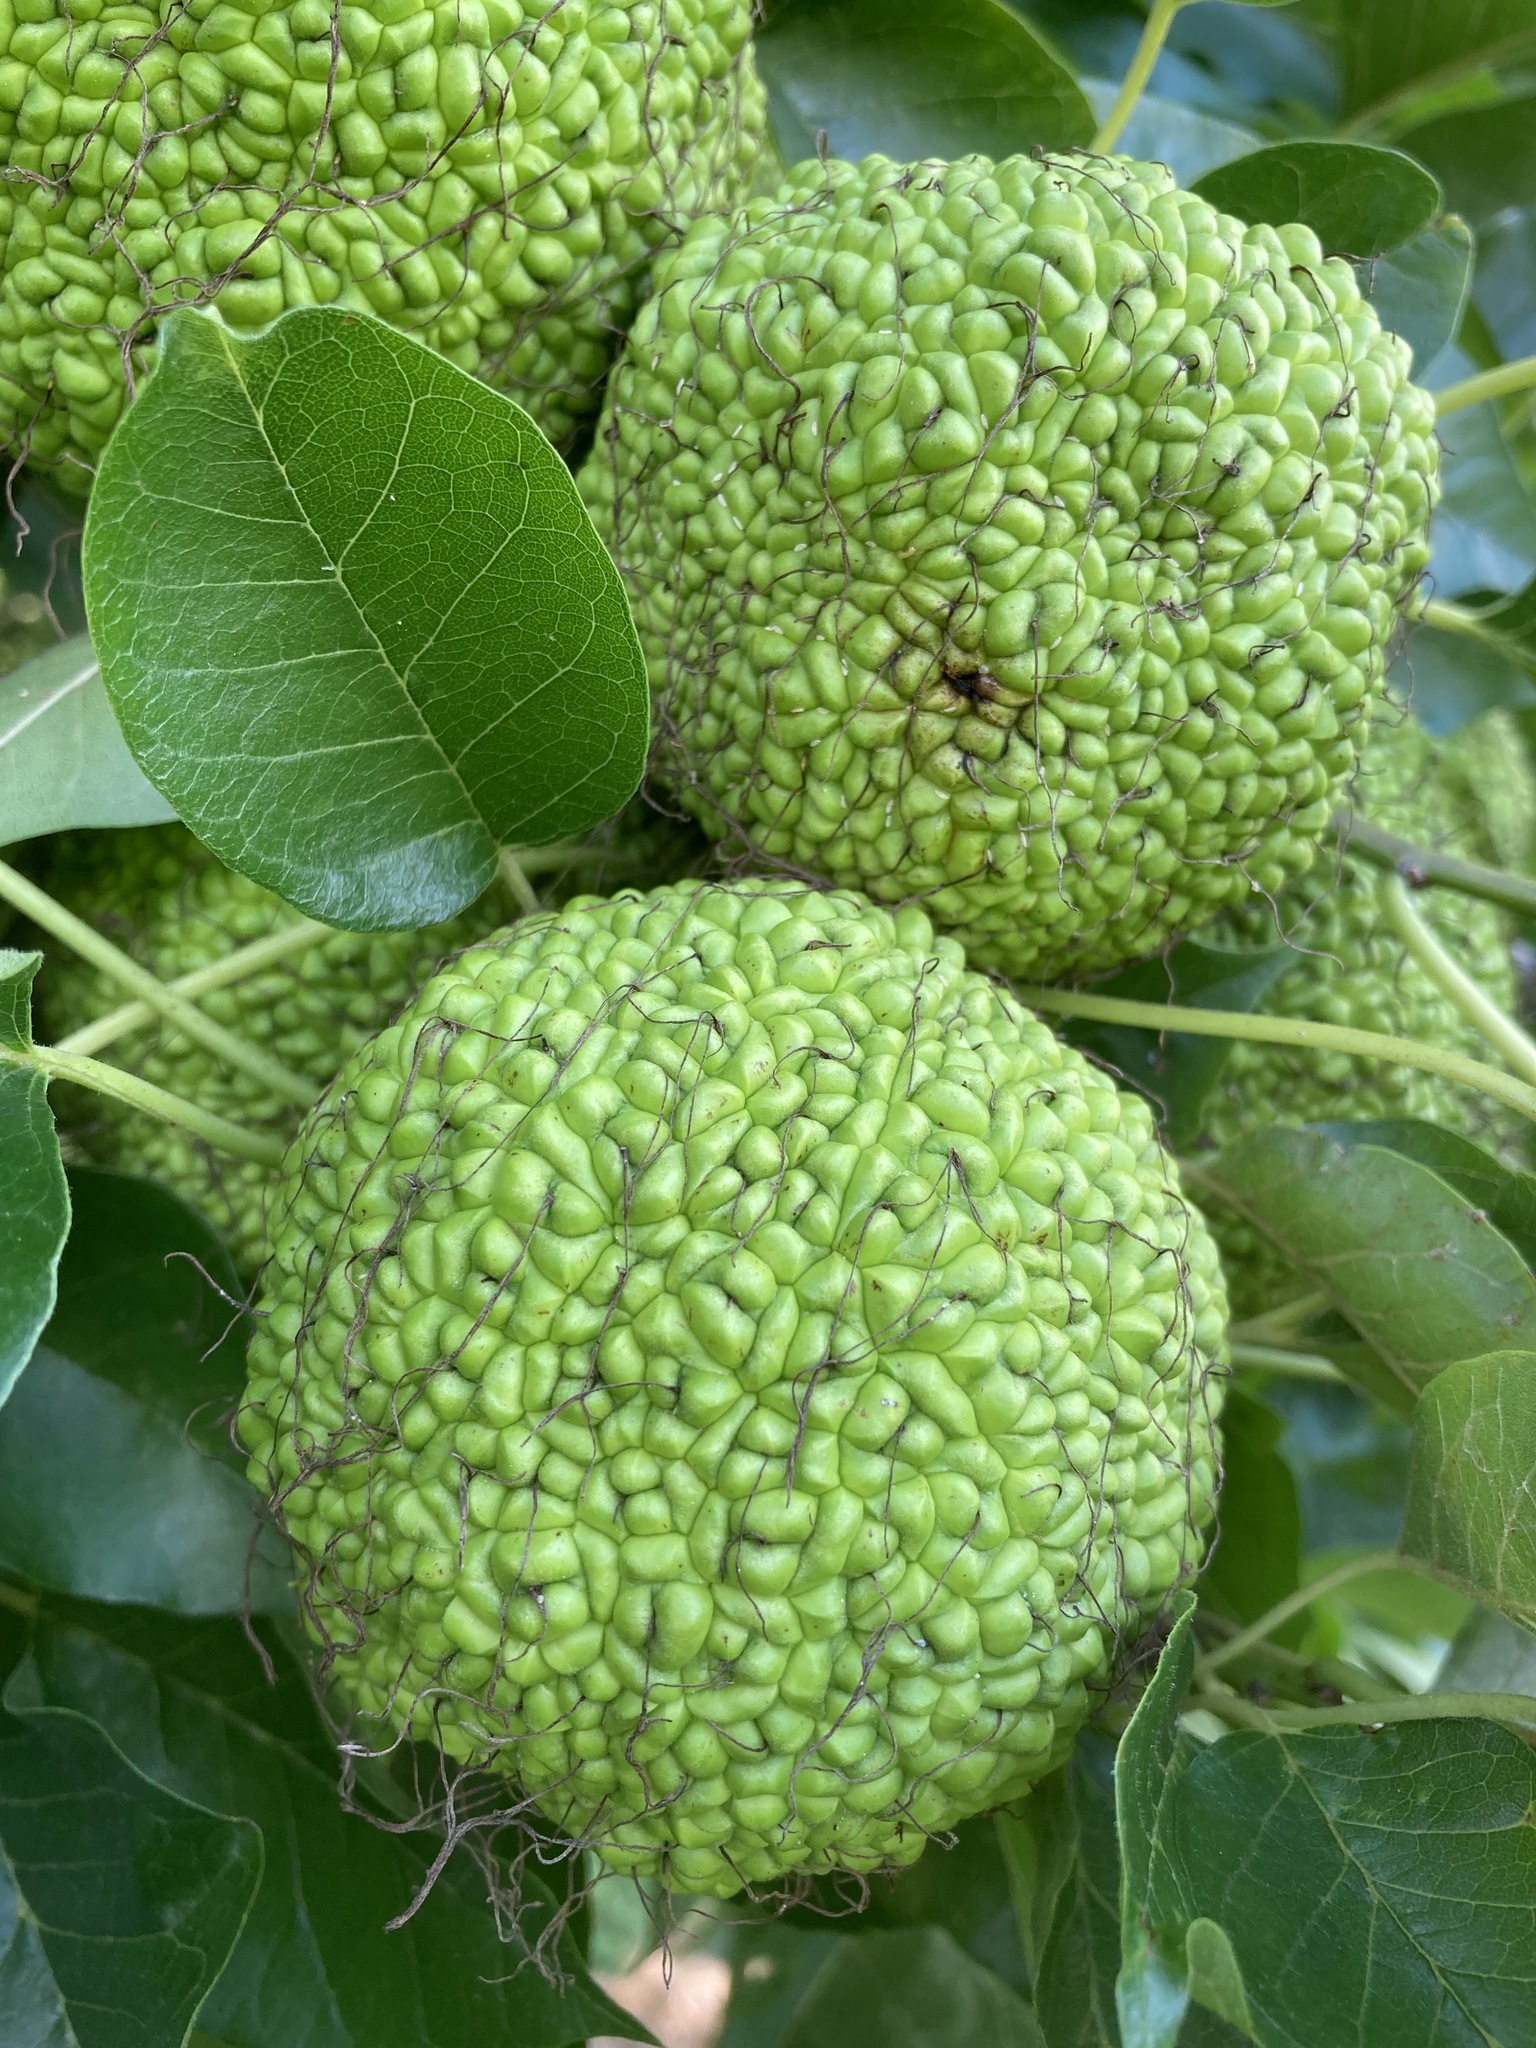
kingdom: Plantae
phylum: Tracheophyta
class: Magnoliopsida
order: Rosales
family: Moraceae
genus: Maclura
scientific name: Maclura pomifera
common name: Osage-orange
